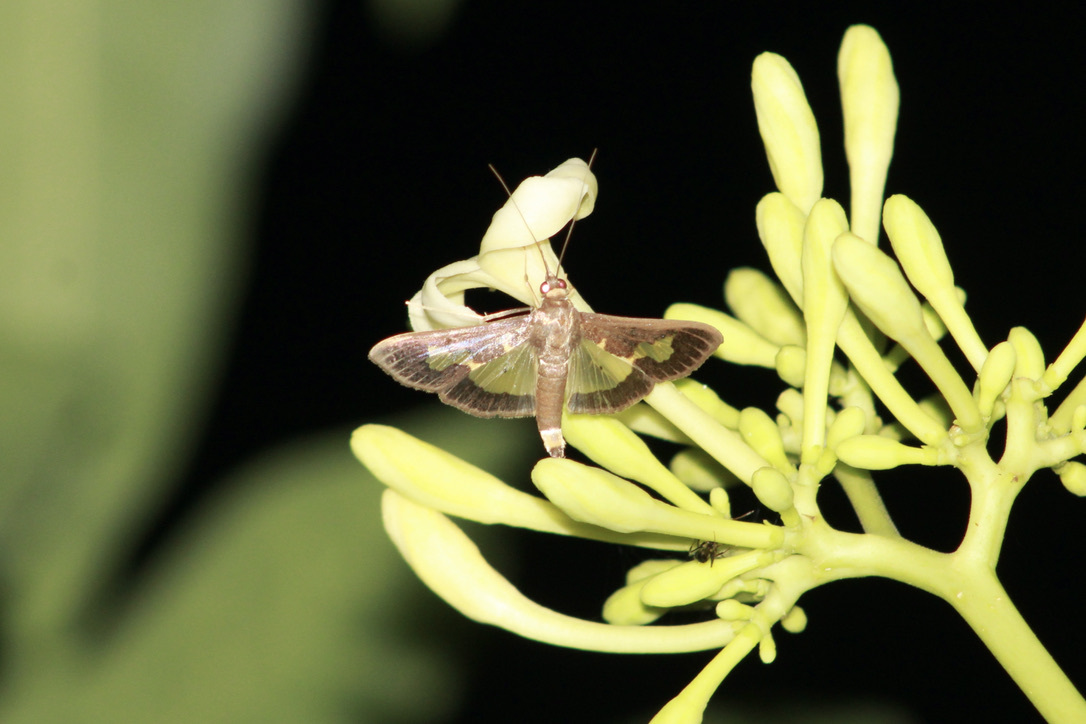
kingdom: Animalia
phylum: Arthropoda
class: Insecta
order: Lepidoptera
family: Crambidae
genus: Cryptographis
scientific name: Cryptographis nitidalis
